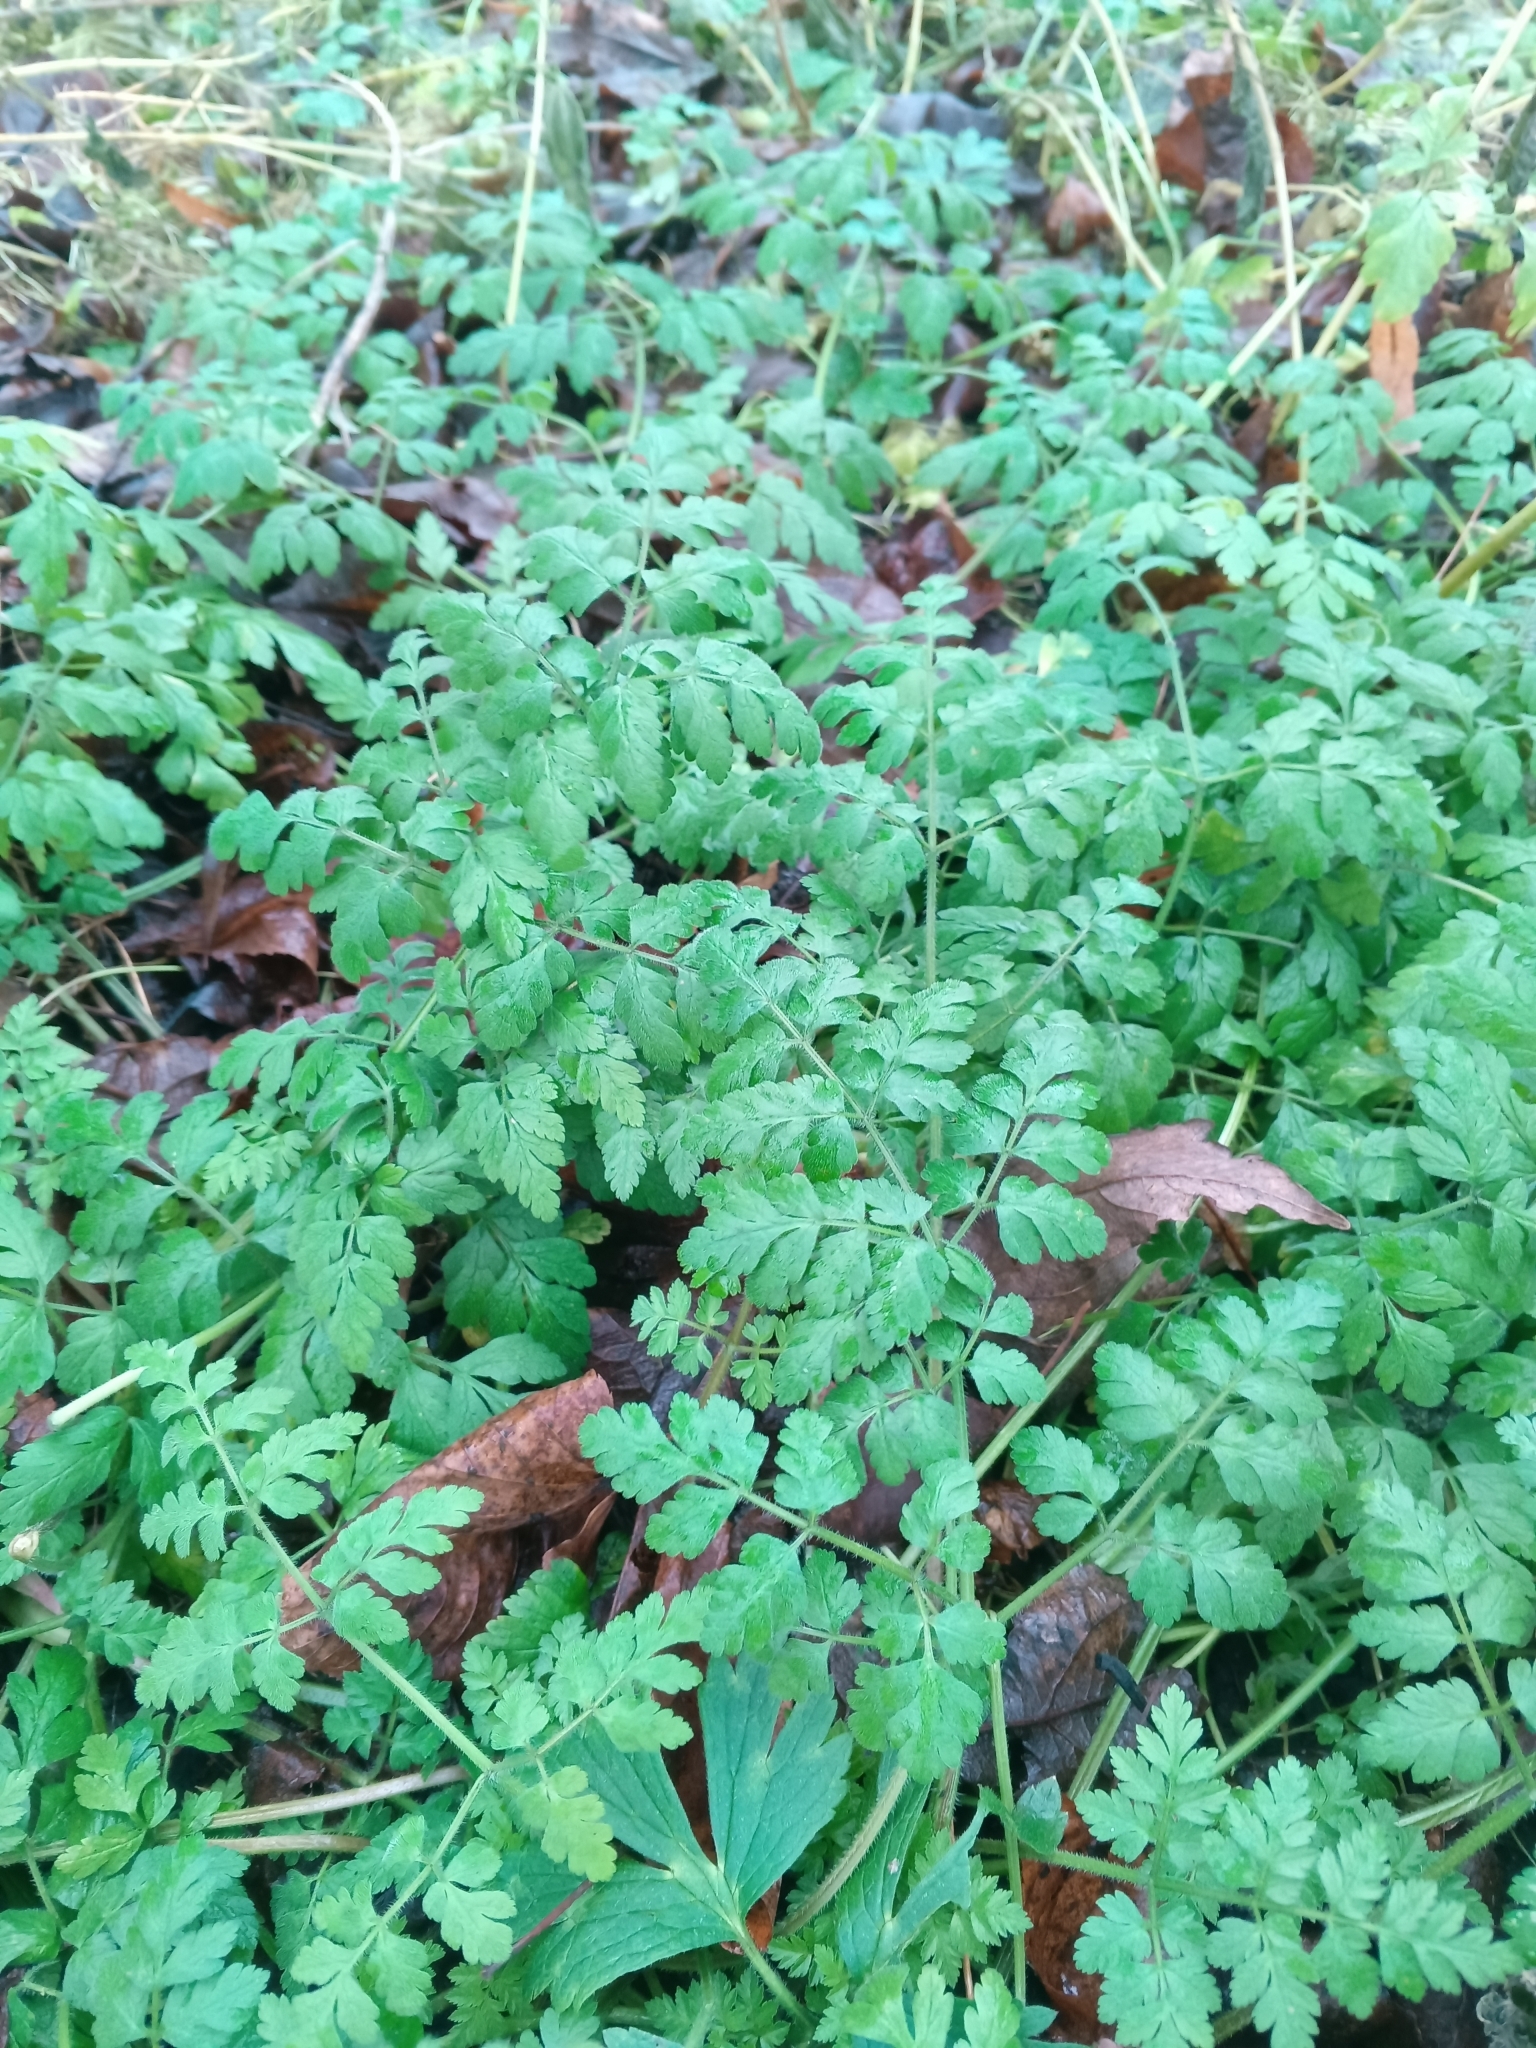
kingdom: Plantae
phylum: Tracheophyta
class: Magnoliopsida
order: Apiales
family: Apiaceae
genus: Chaerophyllum
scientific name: Chaerophyllum temulum
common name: Rough chervil
